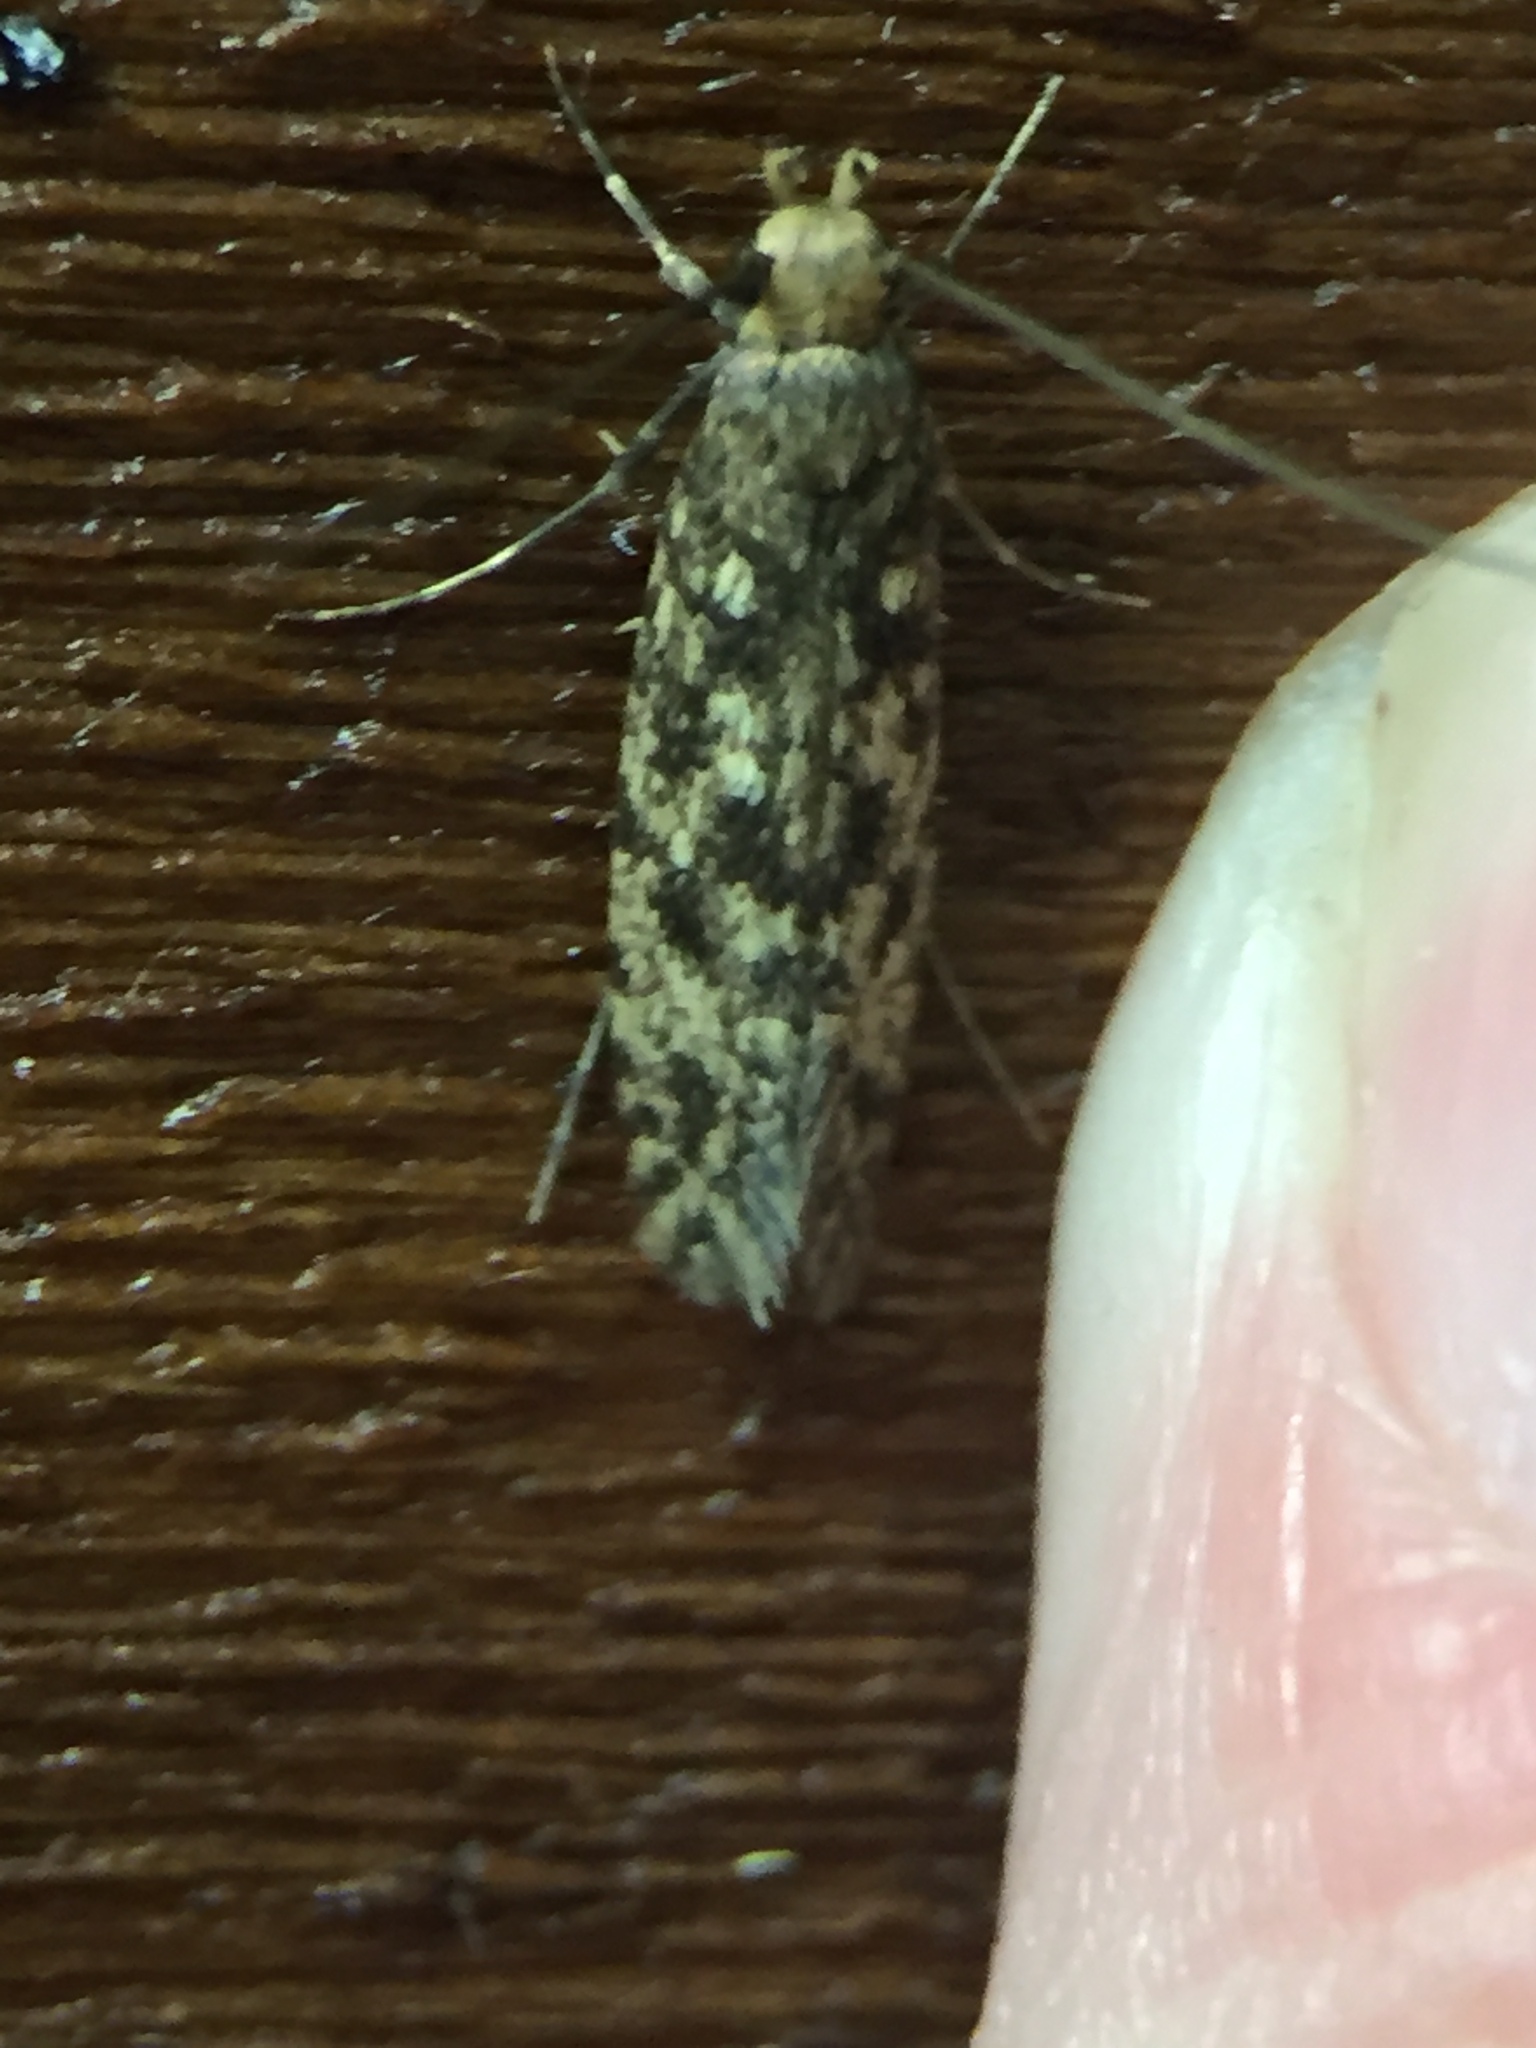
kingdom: Animalia
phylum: Arthropoda
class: Insecta
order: Lepidoptera
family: Tineidae
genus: Lindera
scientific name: Lindera tessellatella
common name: Moth
